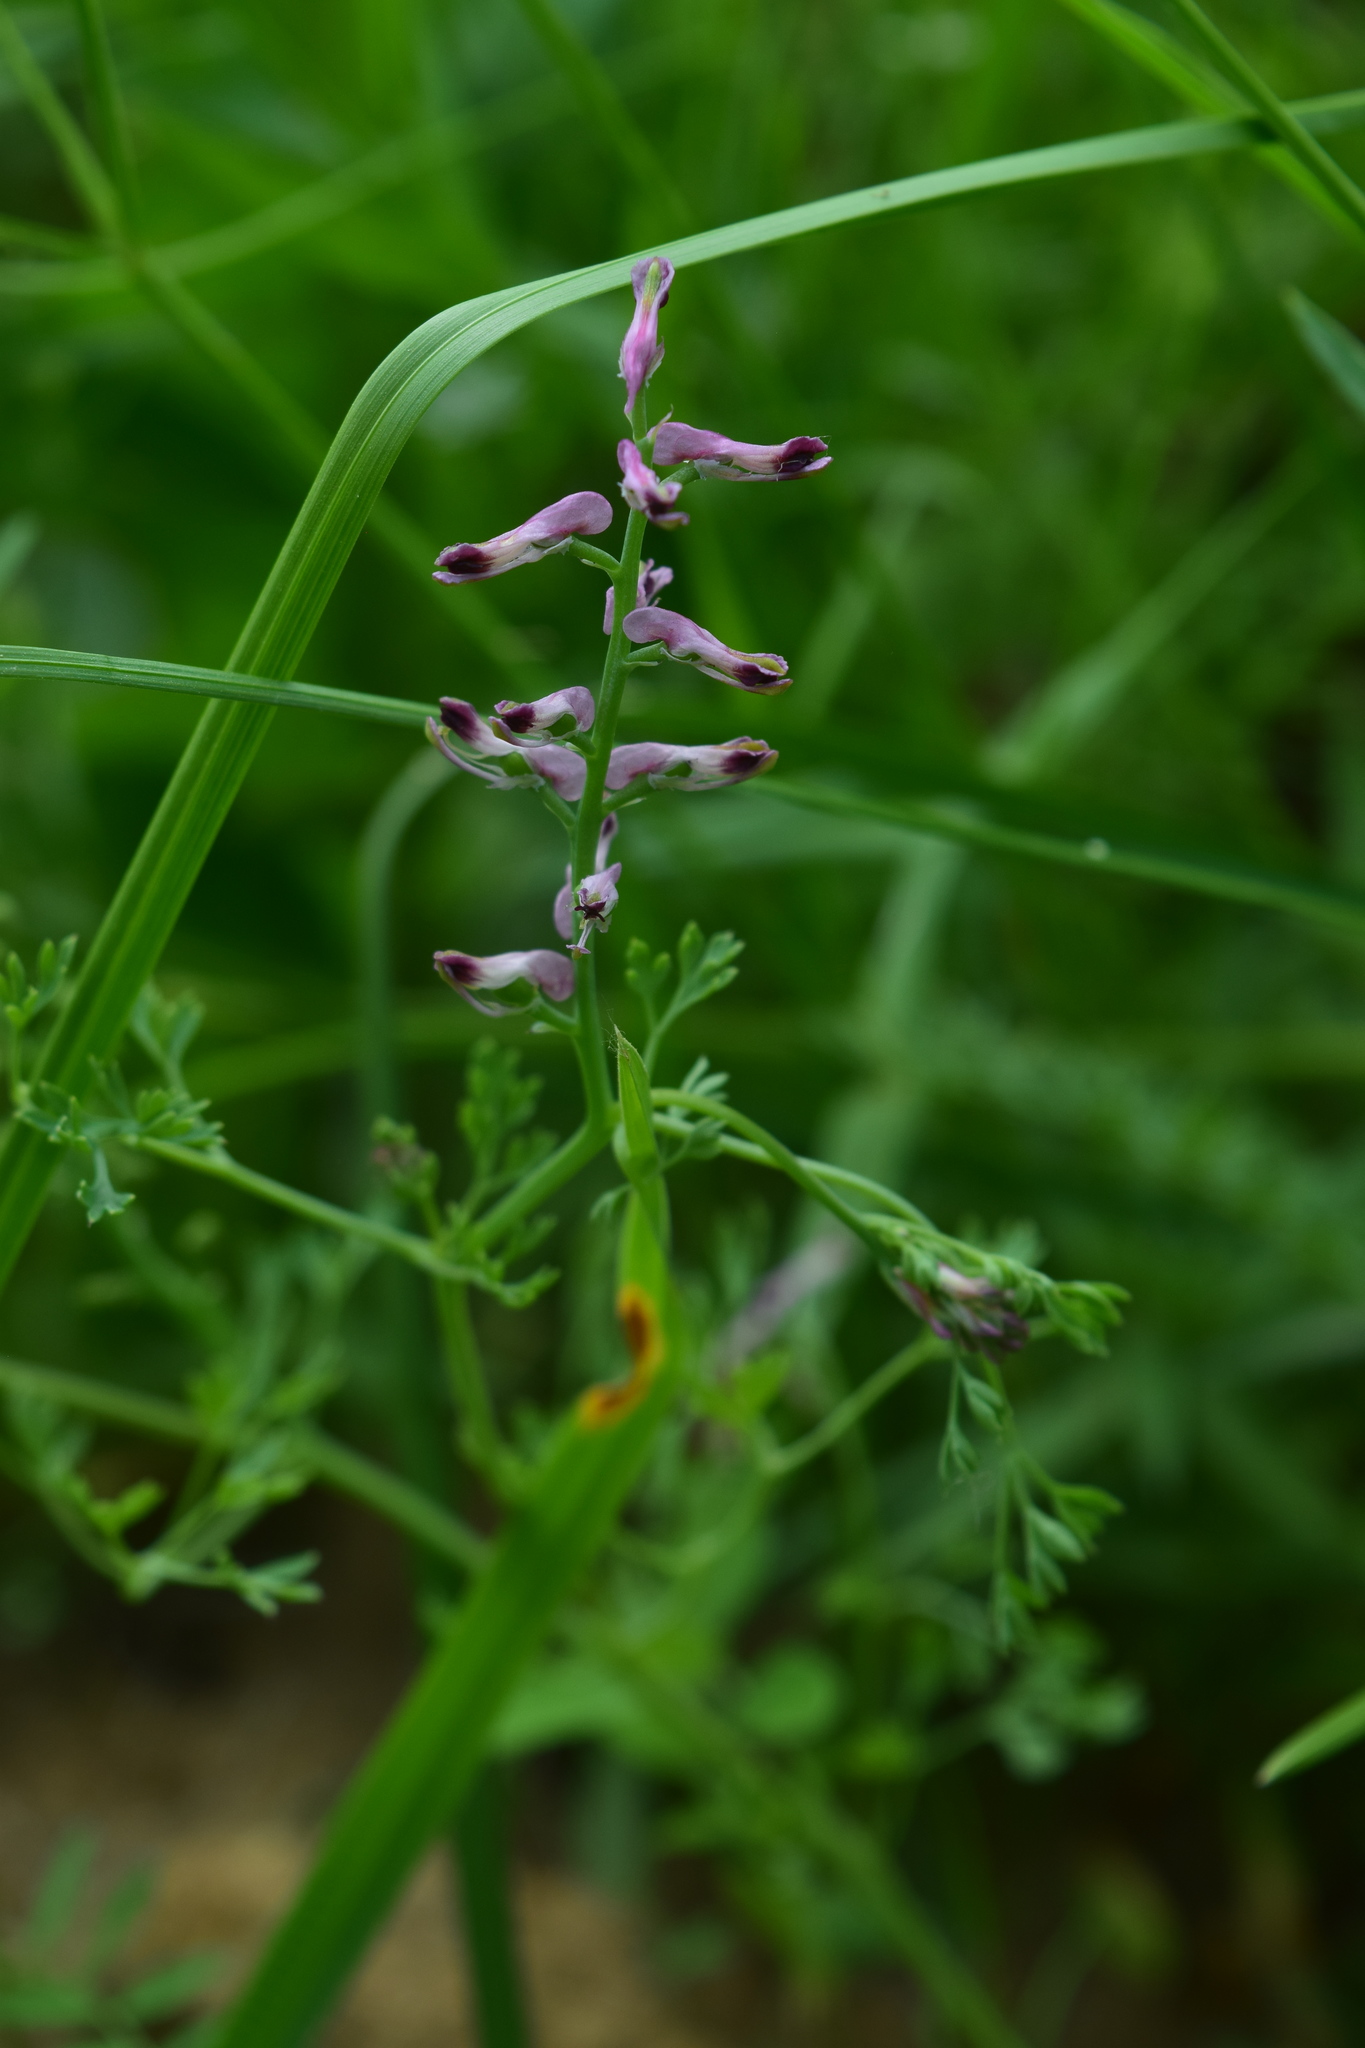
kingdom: Plantae
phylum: Tracheophyta
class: Magnoliopsida
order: Ranunculales
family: Papaveraceae
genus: Fumaria
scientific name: Fumaria officinalis
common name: Common fumitory
